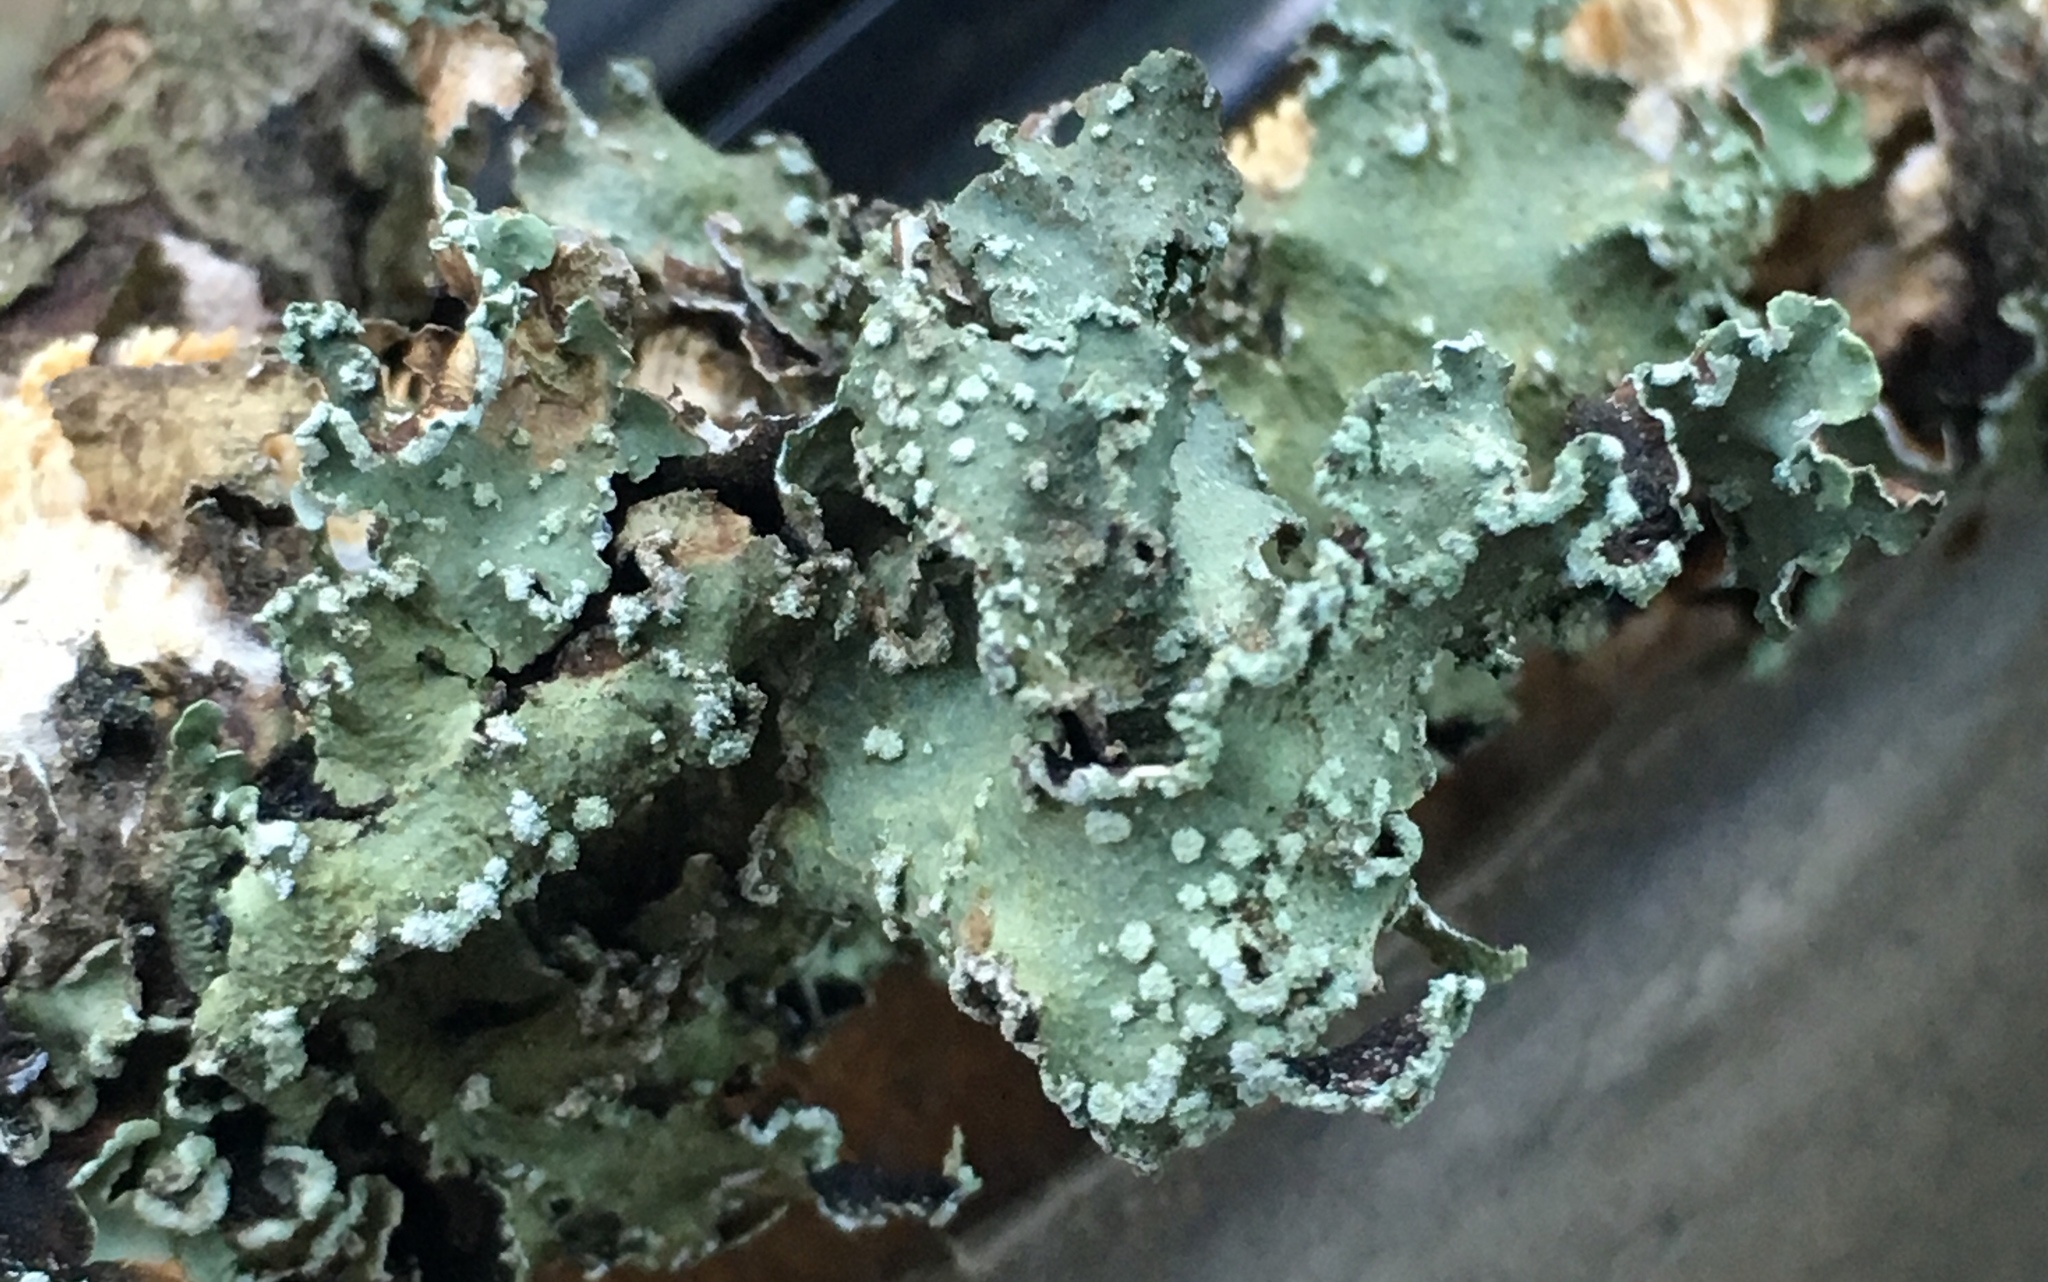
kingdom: Fungi
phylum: Ascomycota
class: Lecanoromycetes
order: Lecanorales
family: Parmeliaceae
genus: Flavopunctelia
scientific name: Flavopunctelia flaventior
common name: Speckled greenshield
